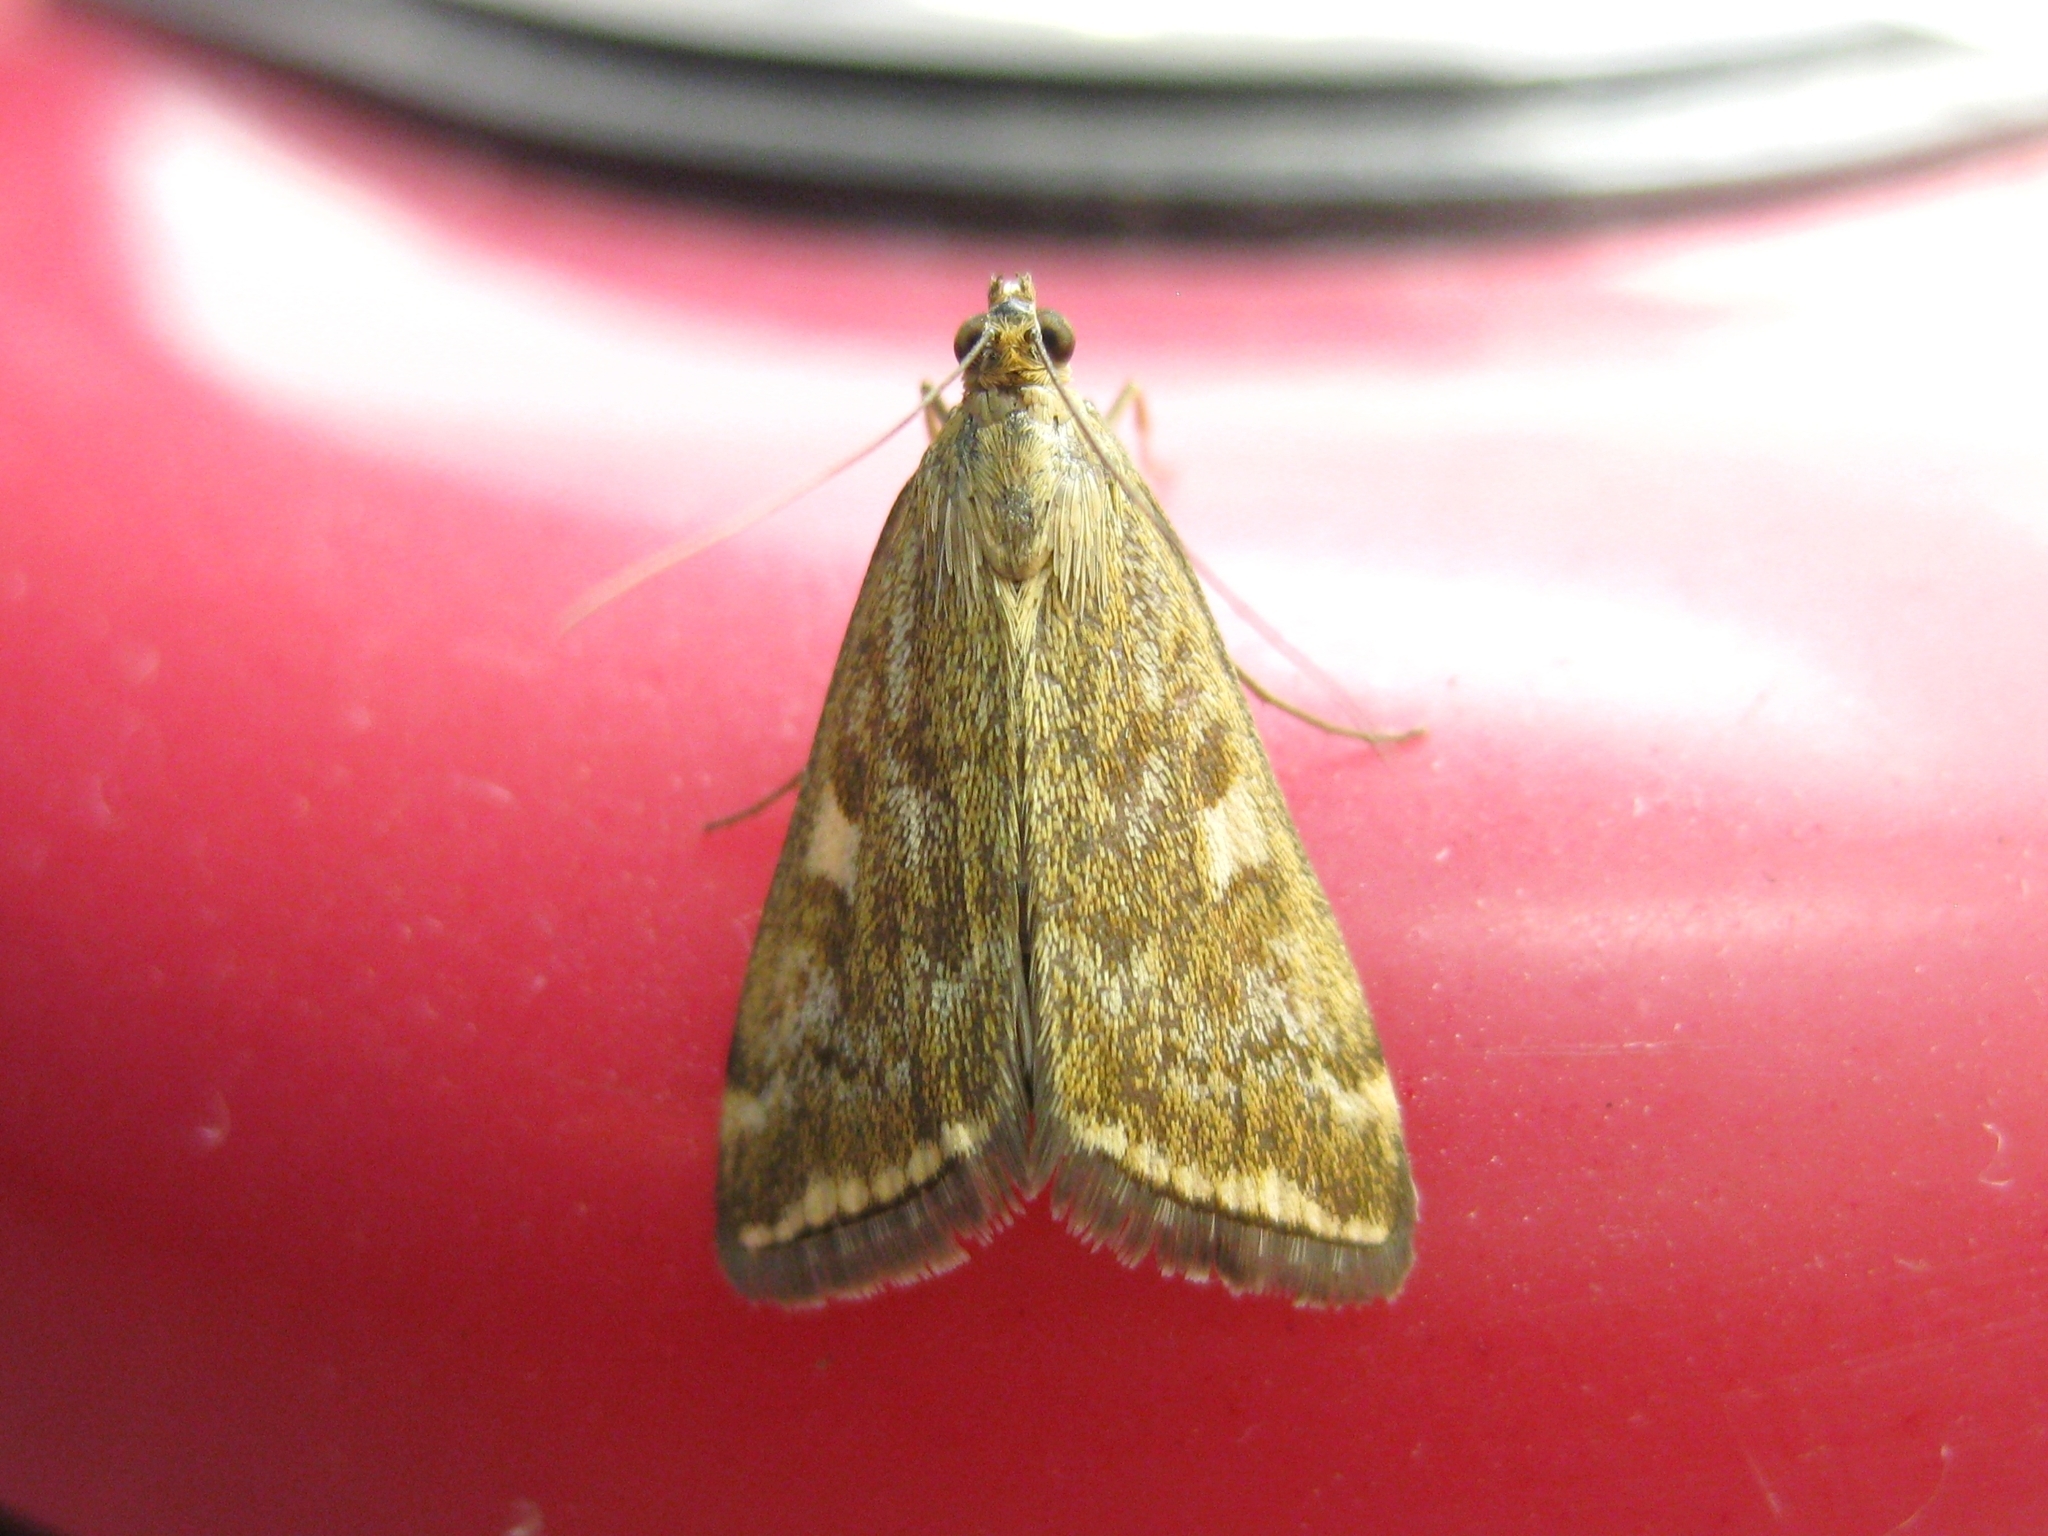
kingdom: Animalia
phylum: Arthropoda
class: Insecta
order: Lepidoptera
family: Crambidae
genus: Loxostege
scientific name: Loxostege sticticalis
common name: Crambid moth
